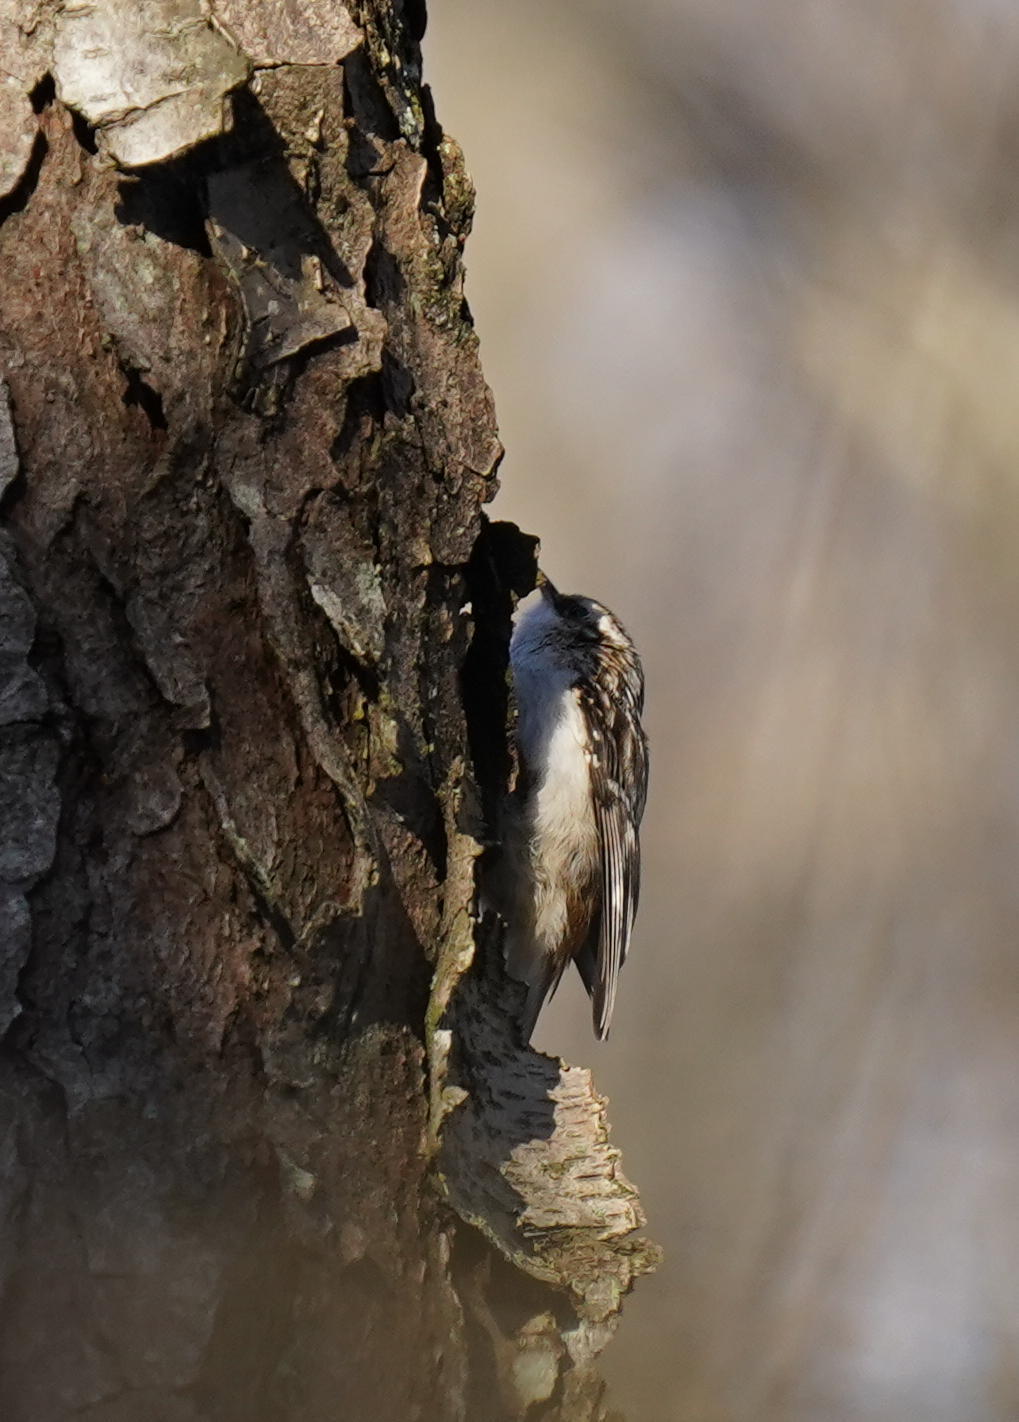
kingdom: Animalia
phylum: Chordata
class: Aves
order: Passeriformes
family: Certhiidae
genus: Certhia
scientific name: Certhia americana
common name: Brown creeper
